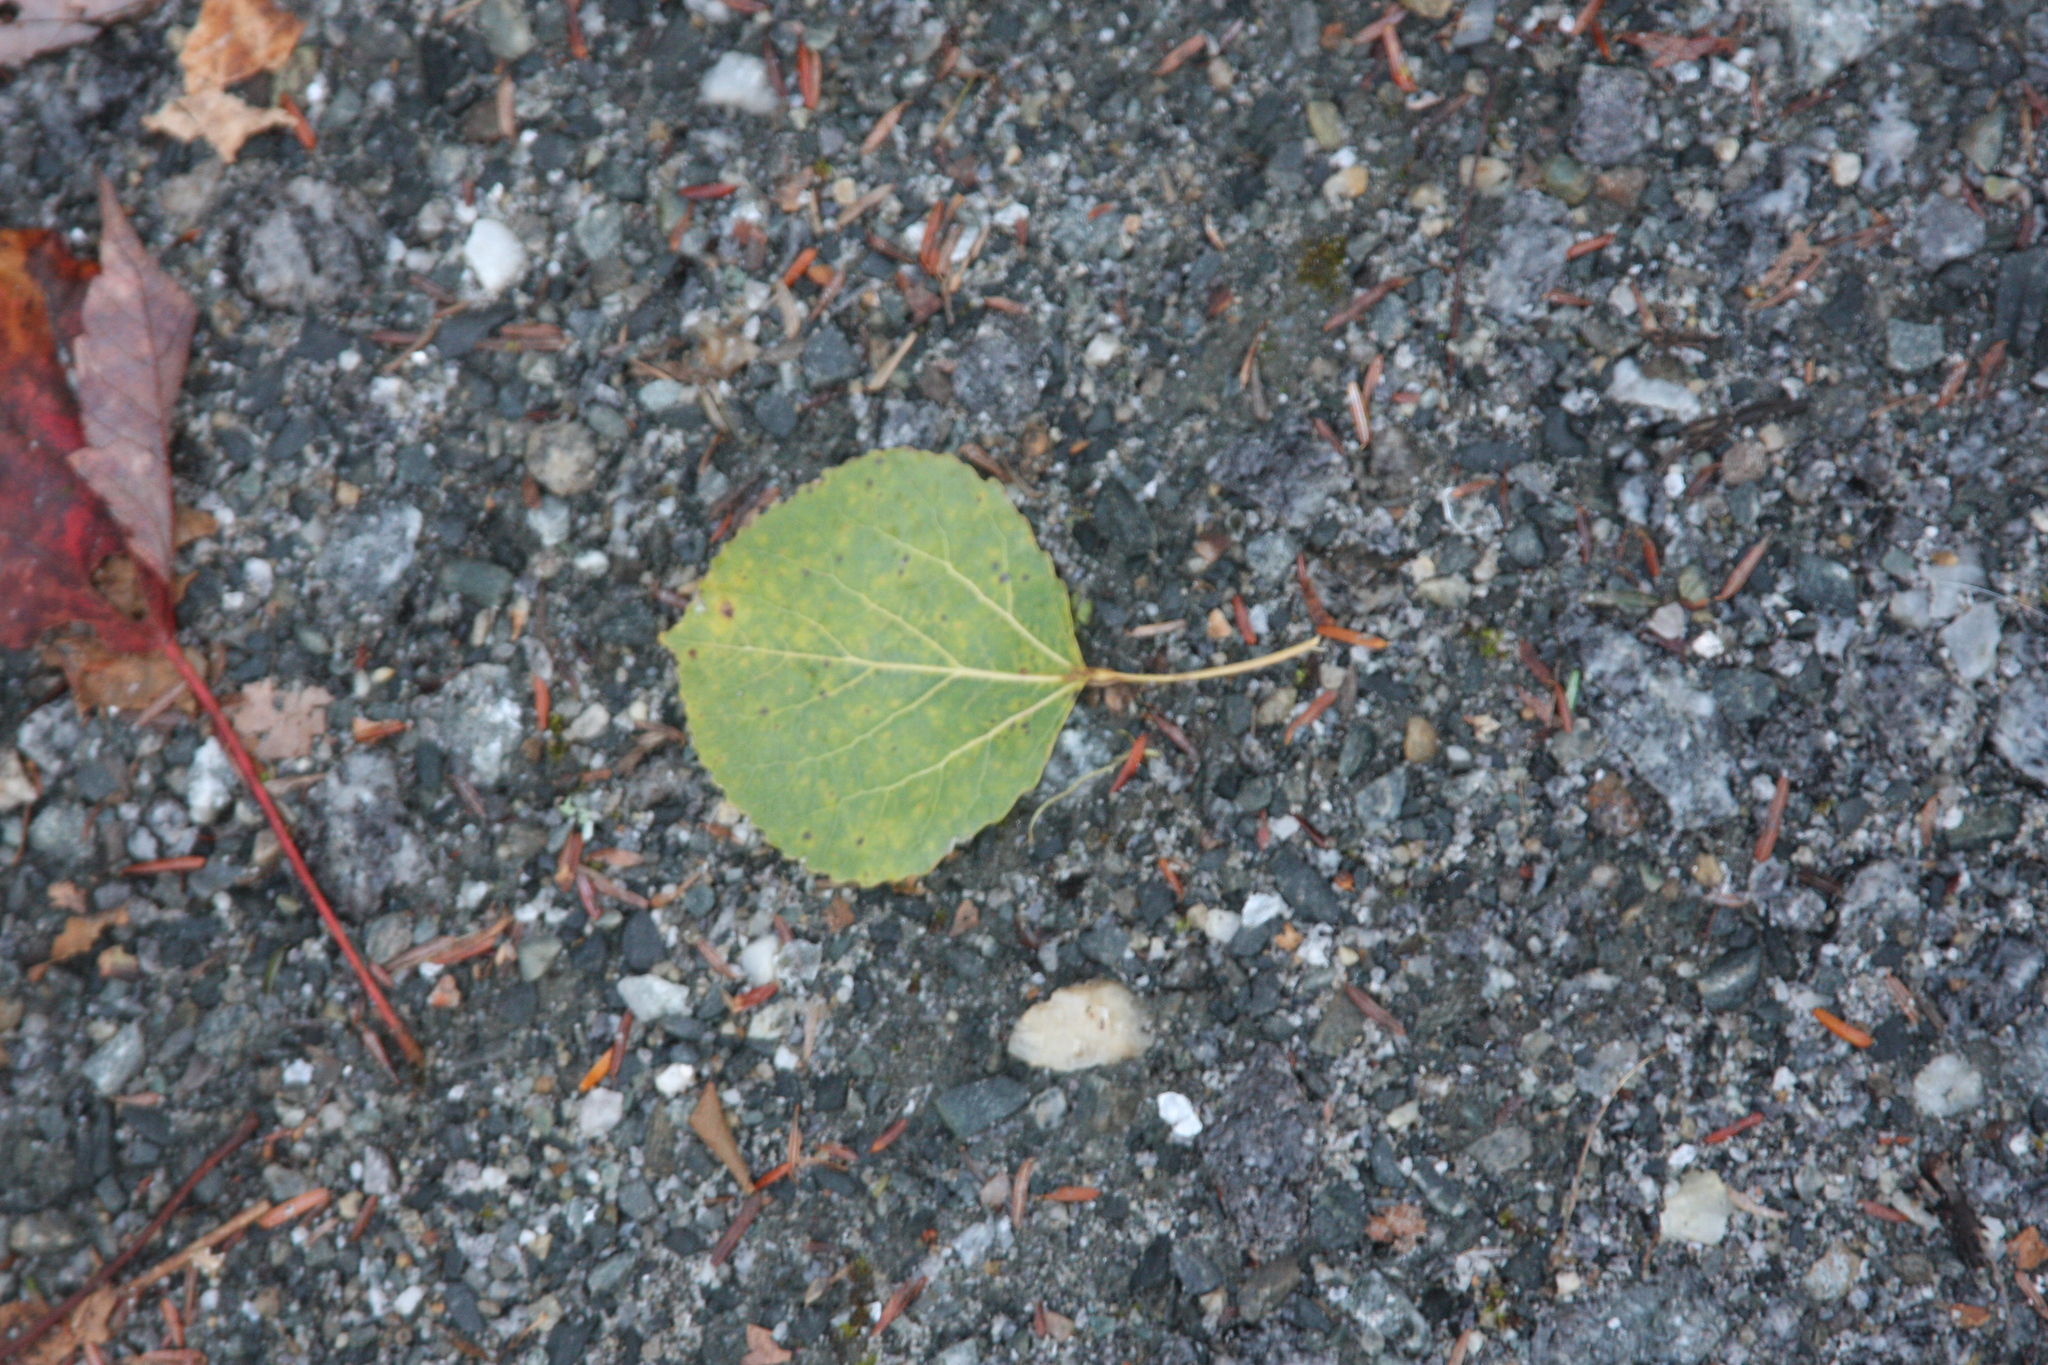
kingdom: Plantae
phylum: Tracheophyta
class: Magnoliopsida
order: Malpighiales
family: Salicaceae
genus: Populus
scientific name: Populus tremuloides
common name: Quaking aspen
